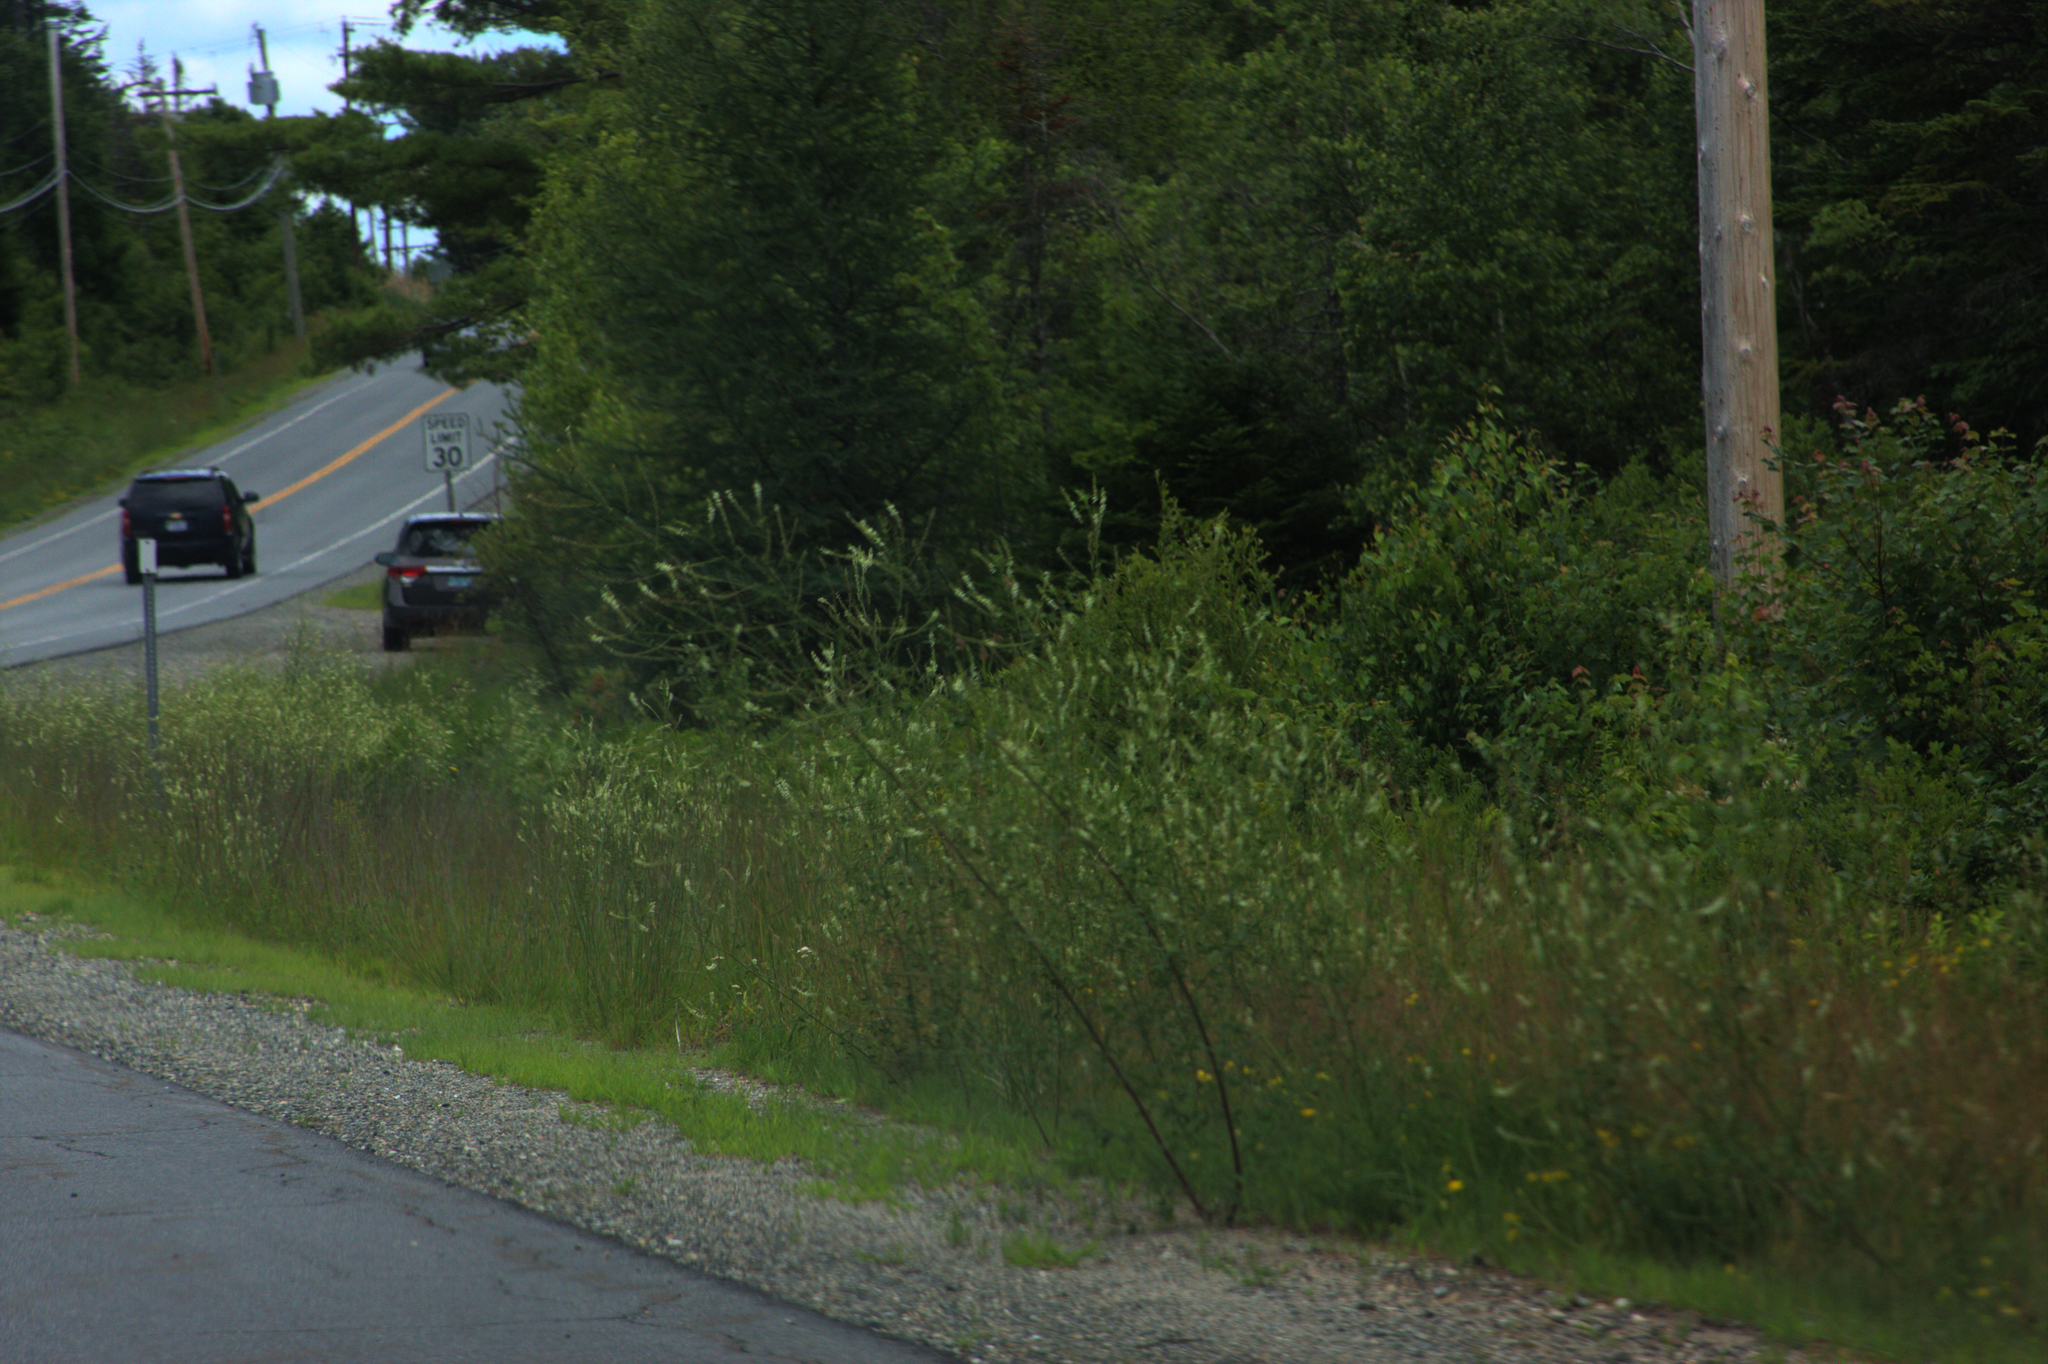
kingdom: Plantae
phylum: Tracheophyta
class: Magnoliopsida
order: Fabales
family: Fabaceae
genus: Melilotus
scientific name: Melilotus albus
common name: White melilot
